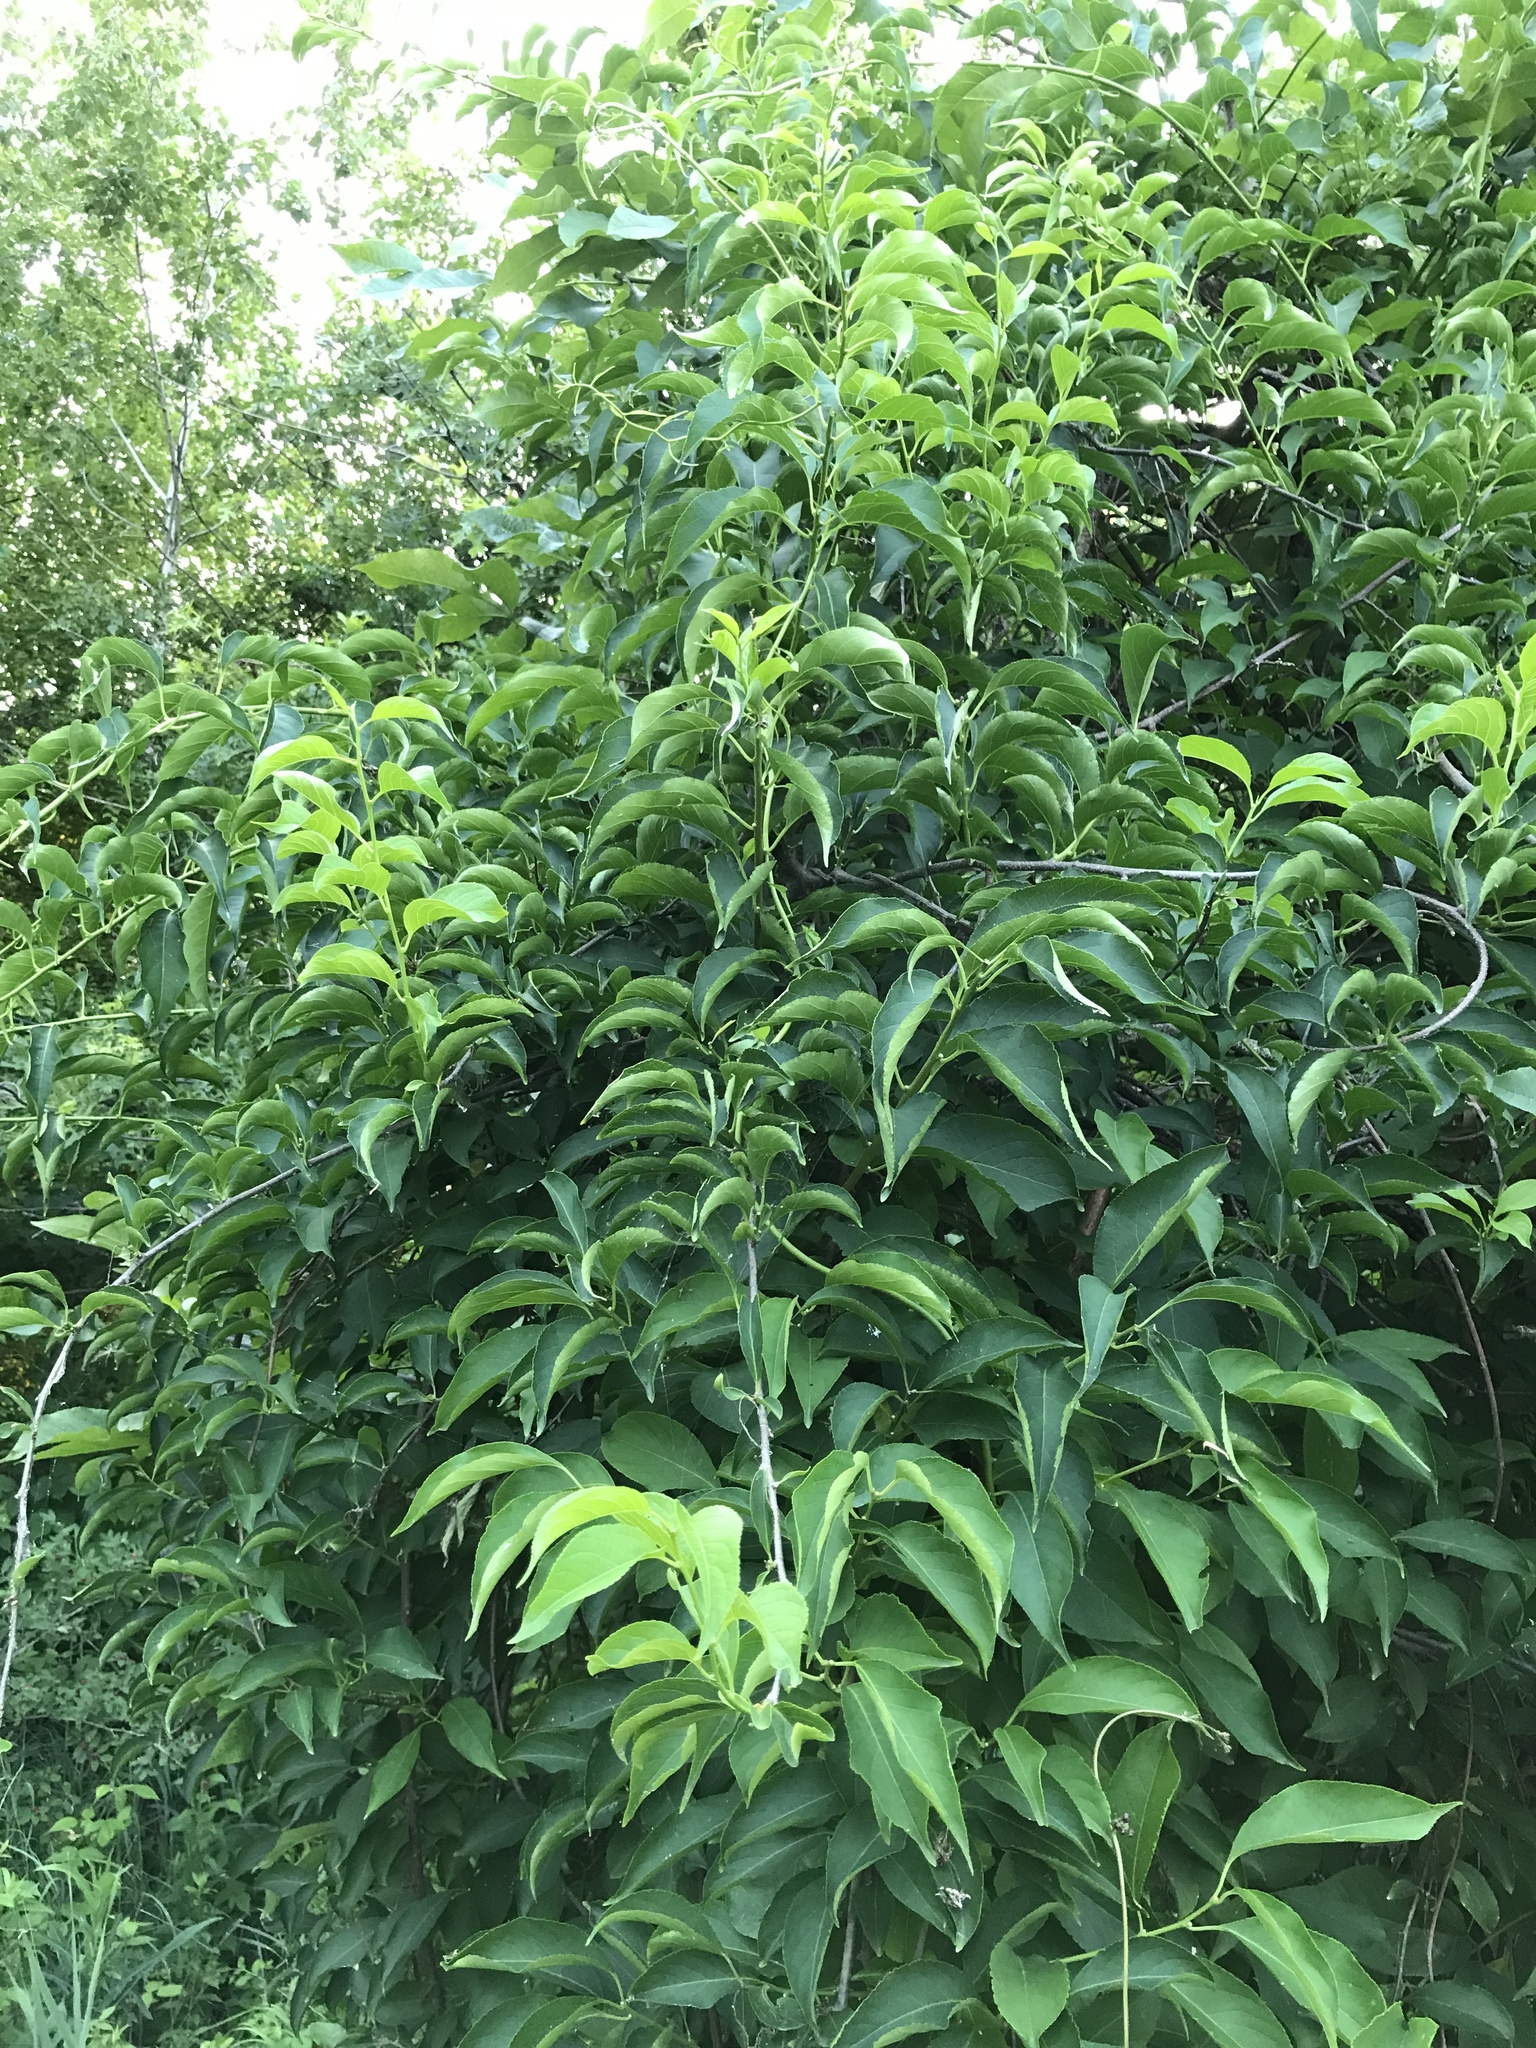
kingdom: Plantae
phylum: Tracheophyta
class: Magnoliopsida
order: Celastrales
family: Celastraceae
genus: Celastrus
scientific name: Celastrus scandens
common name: American bittersweet
